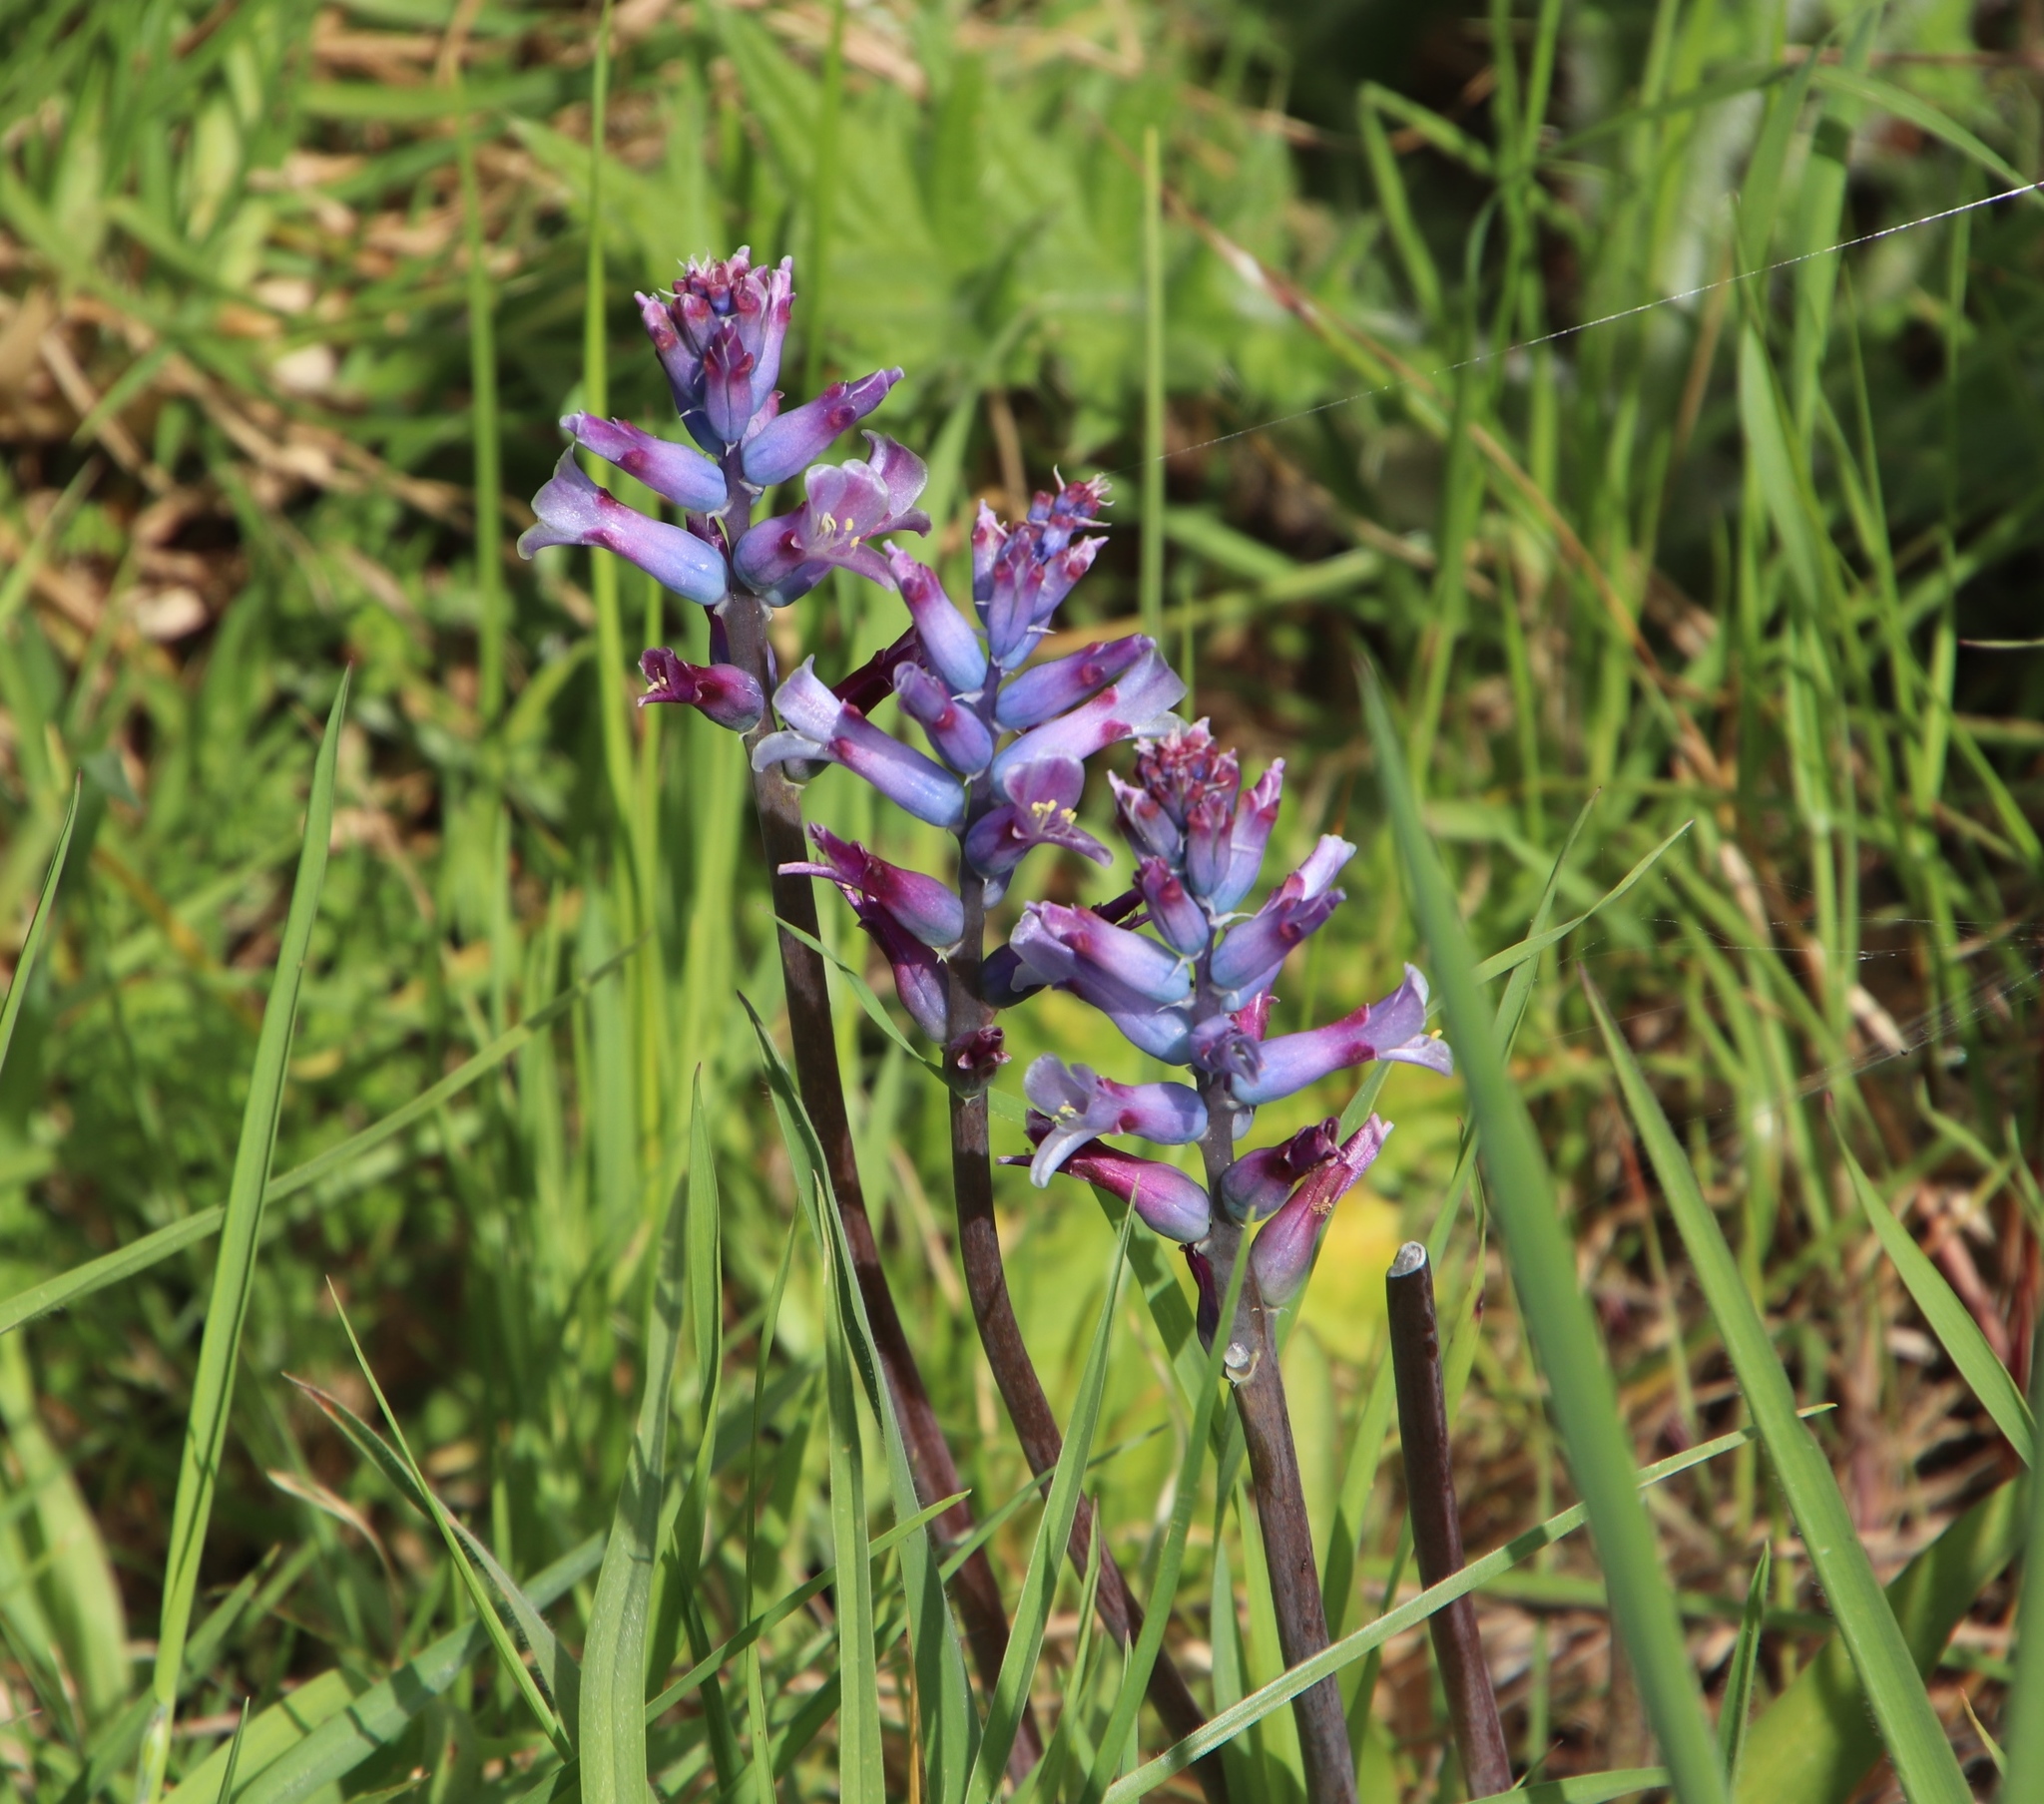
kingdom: Plantae
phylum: Tracheophyta
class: Liliopsida
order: Asparagales
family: Asparagaceae
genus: Lachenalia
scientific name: Lachenalia glaucina
